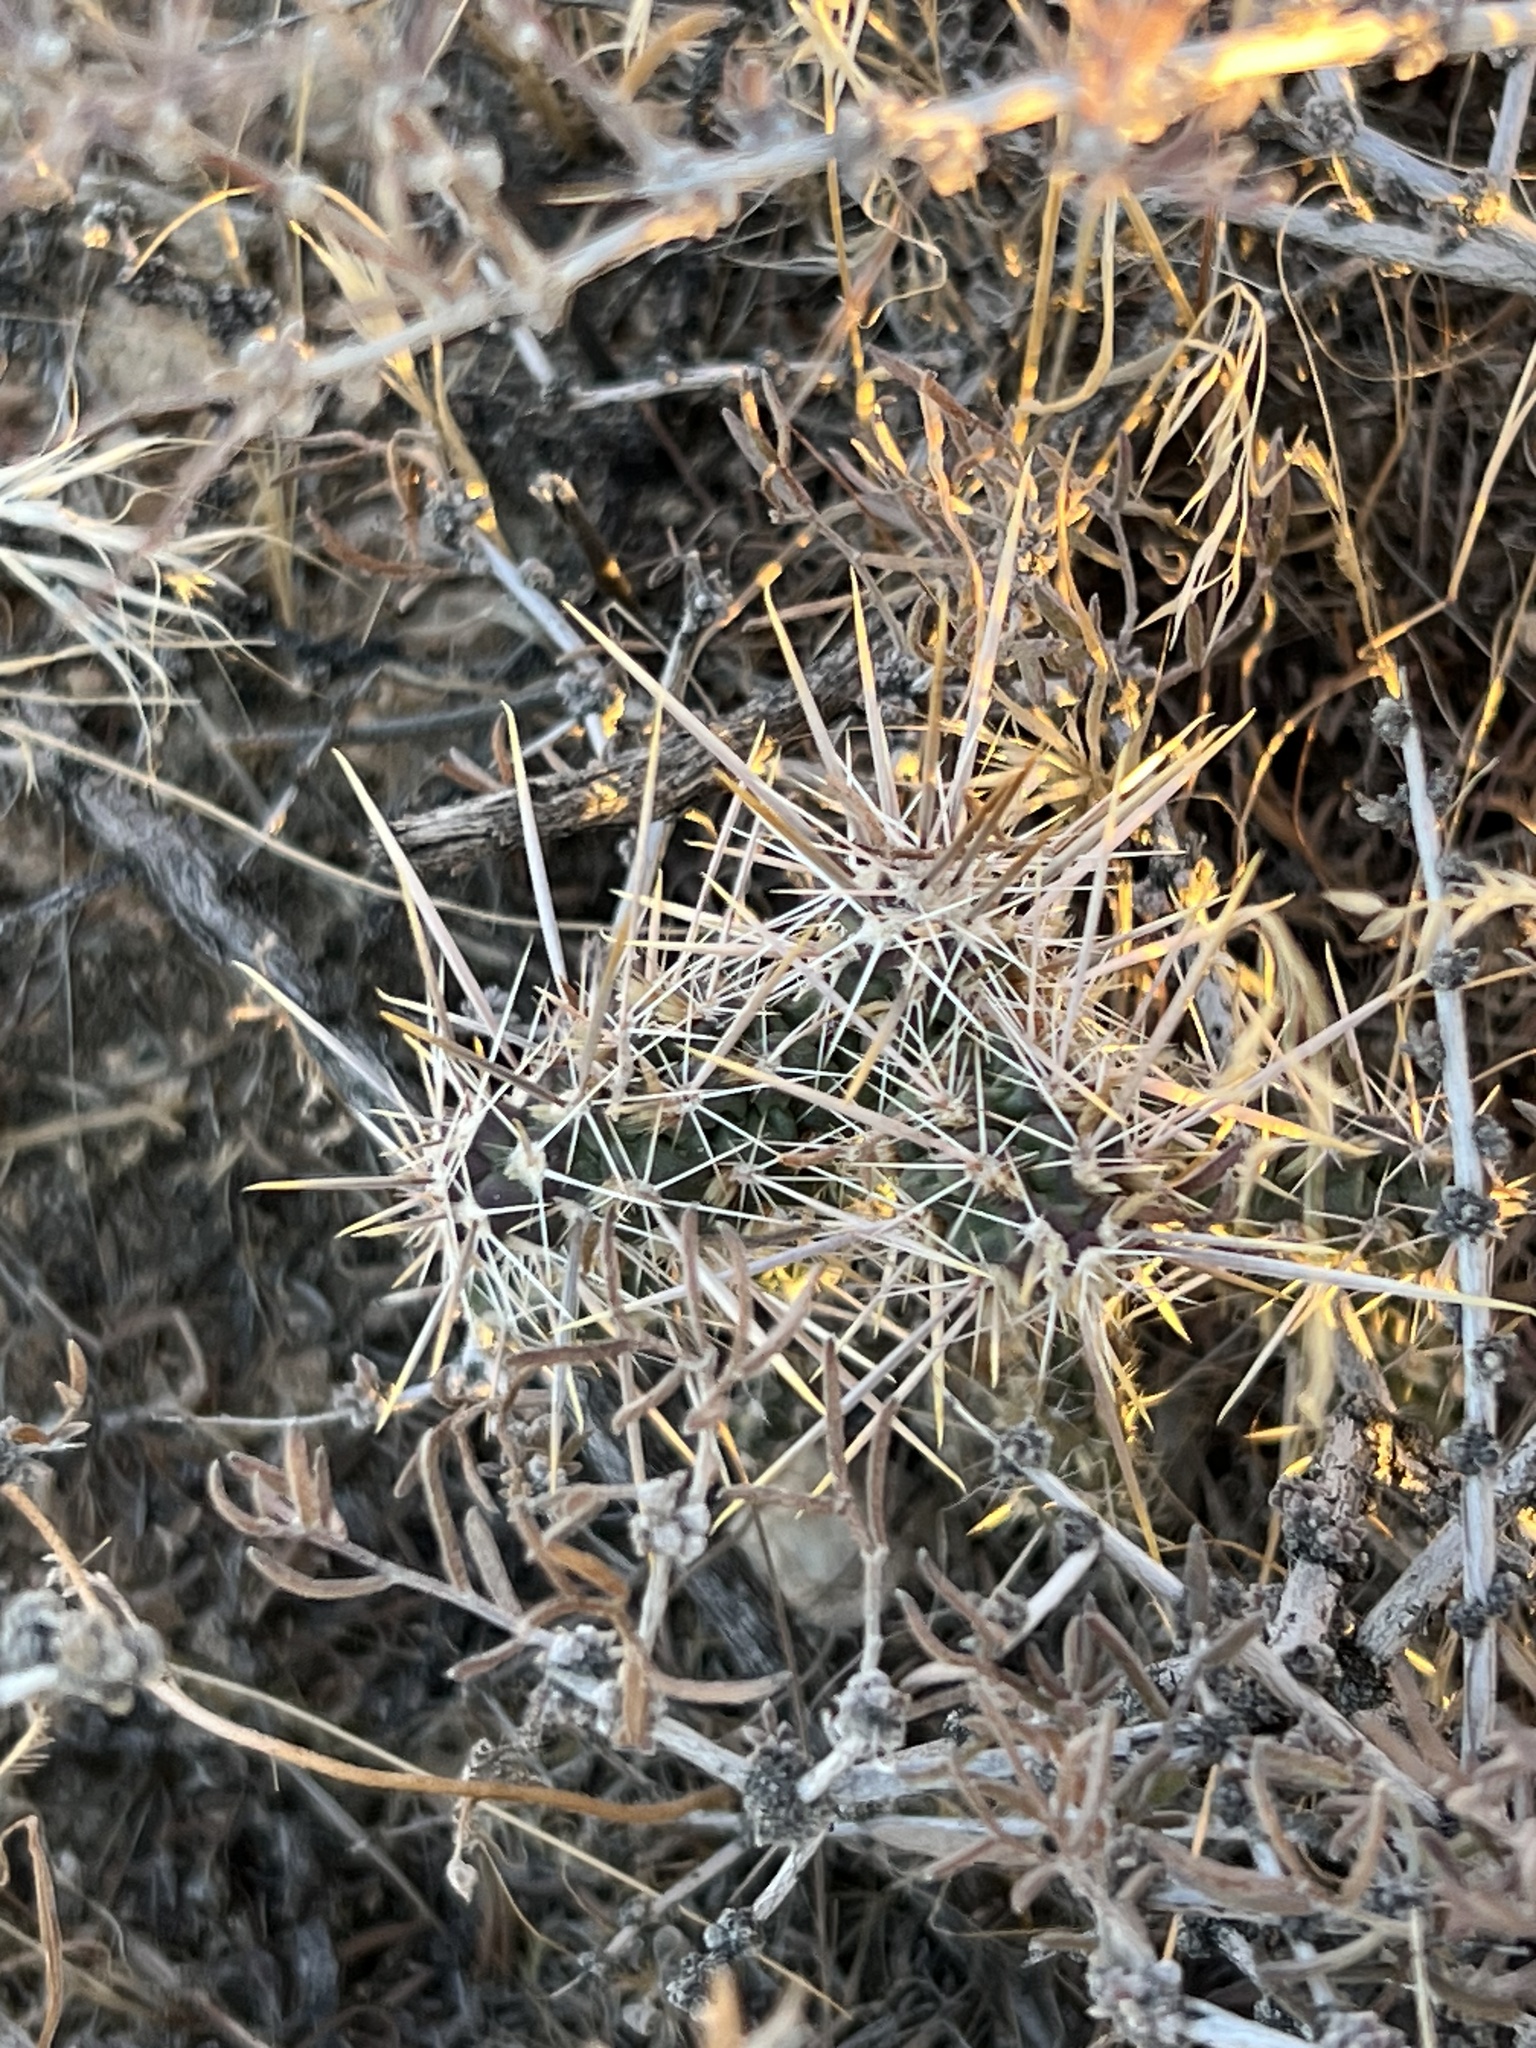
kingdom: Plantae
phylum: Tracheophyta
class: Magnoliopsida
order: Caryophyllales
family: Cactaceae
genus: Cylindropuntia
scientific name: Cylindropuntia echinocarpa
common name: Ground cholla
